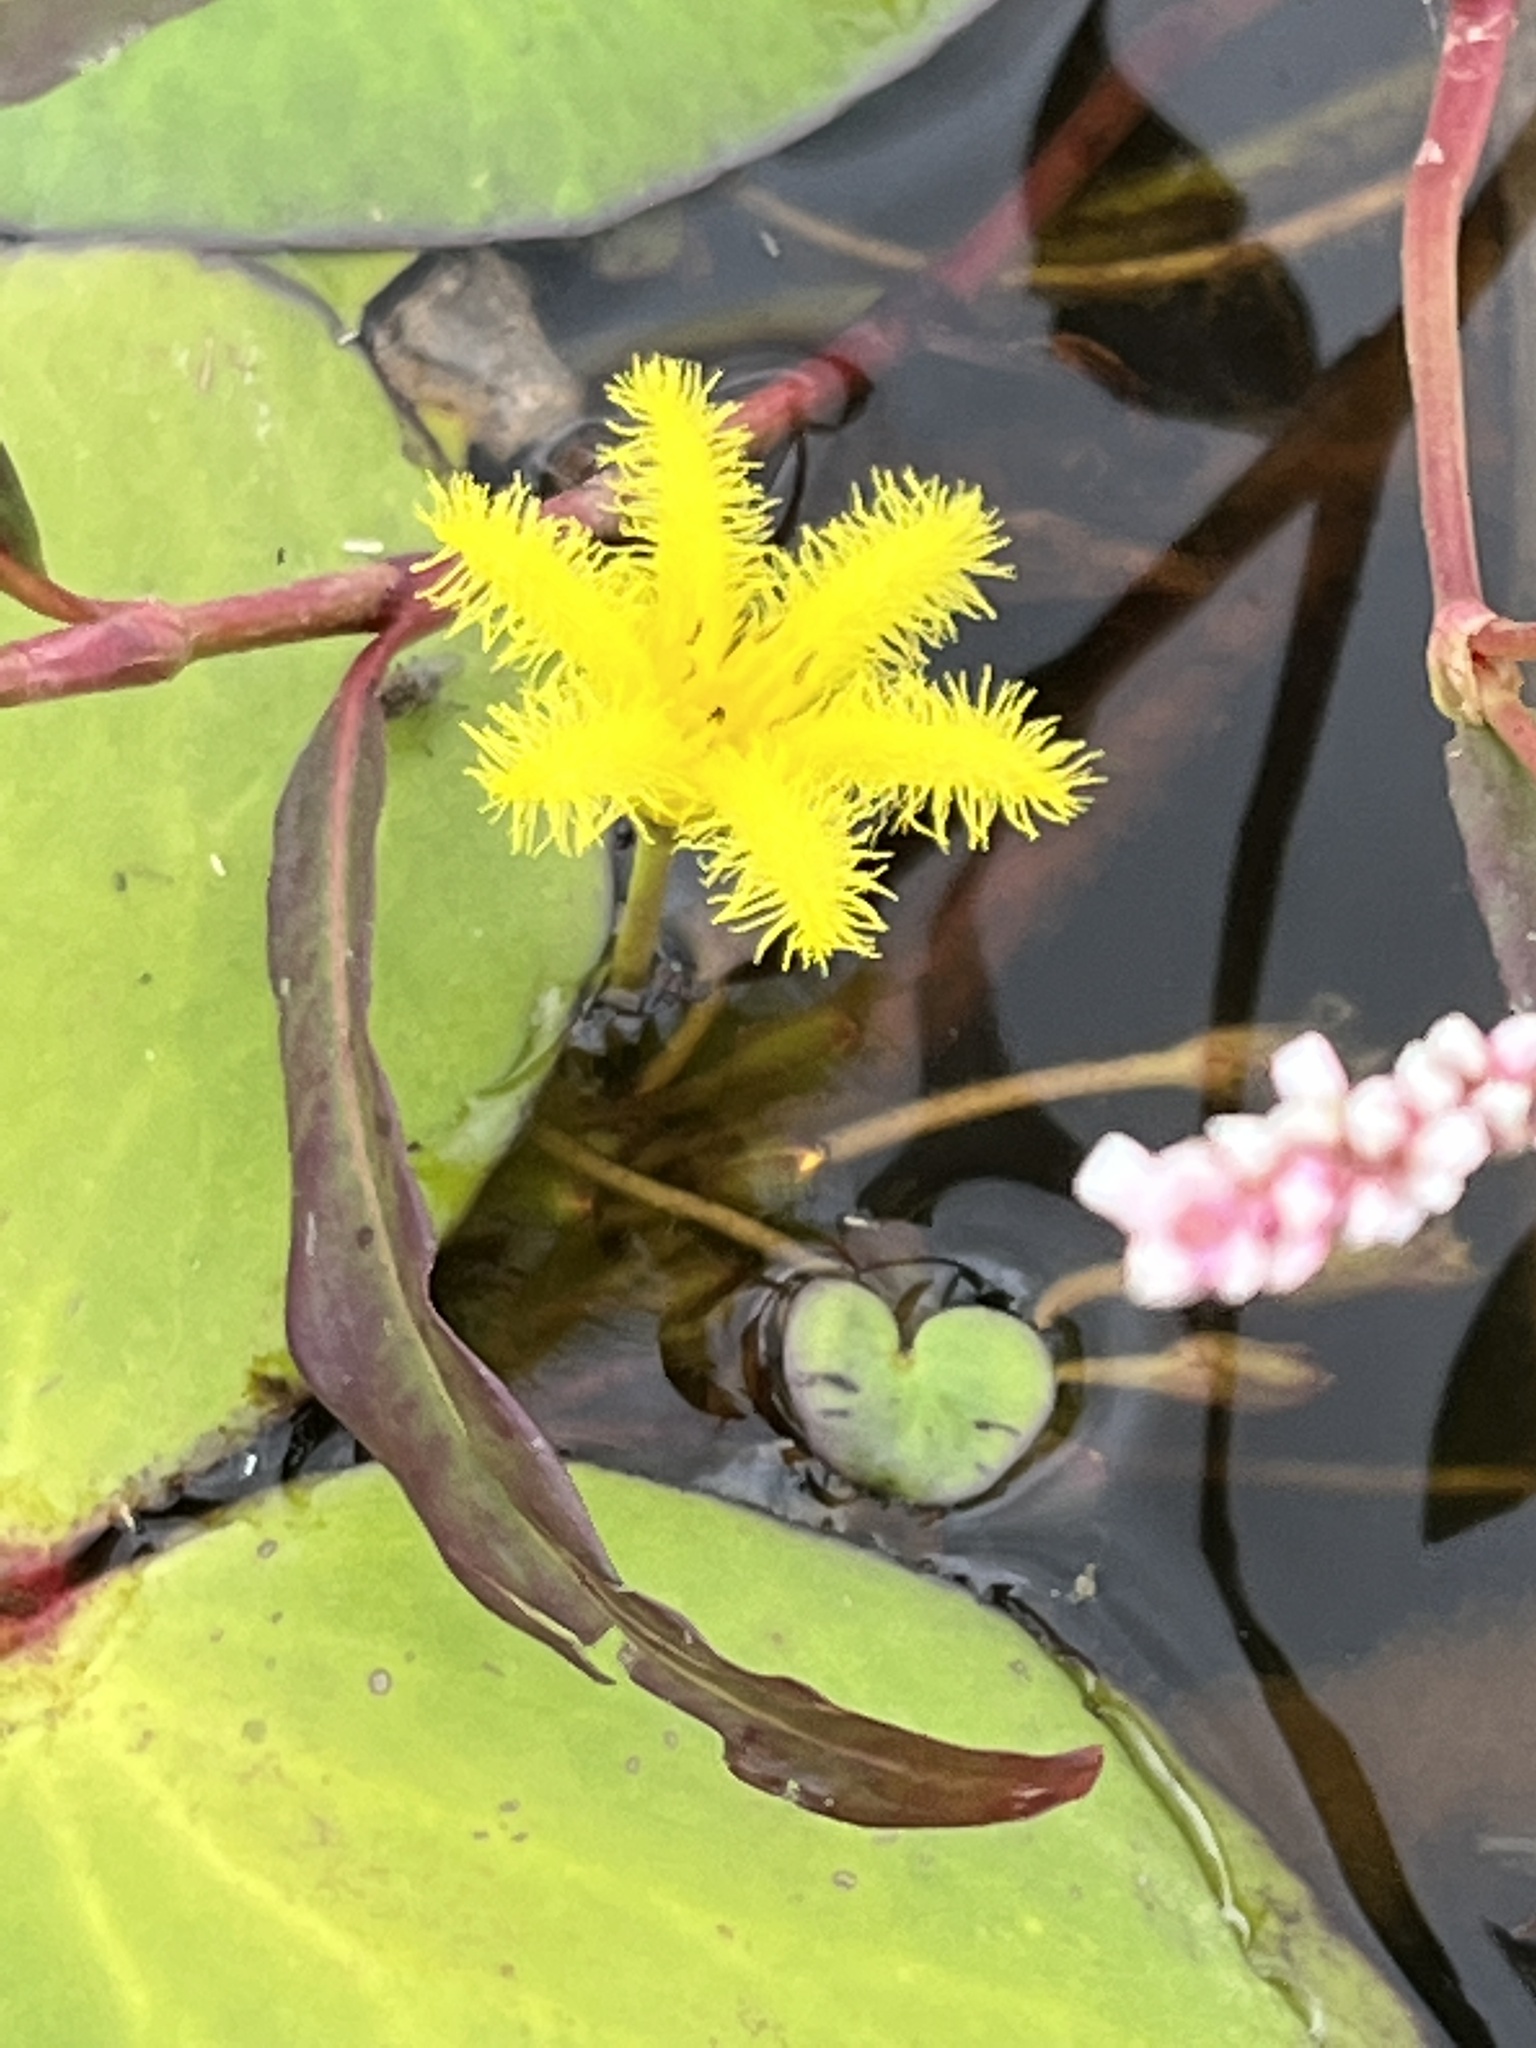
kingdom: Plantae
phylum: Tracheophyta
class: Magnoliopsida
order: Asterales
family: Menyanthaceae
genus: Nymphoides
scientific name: Nymphoides thunbergiana
